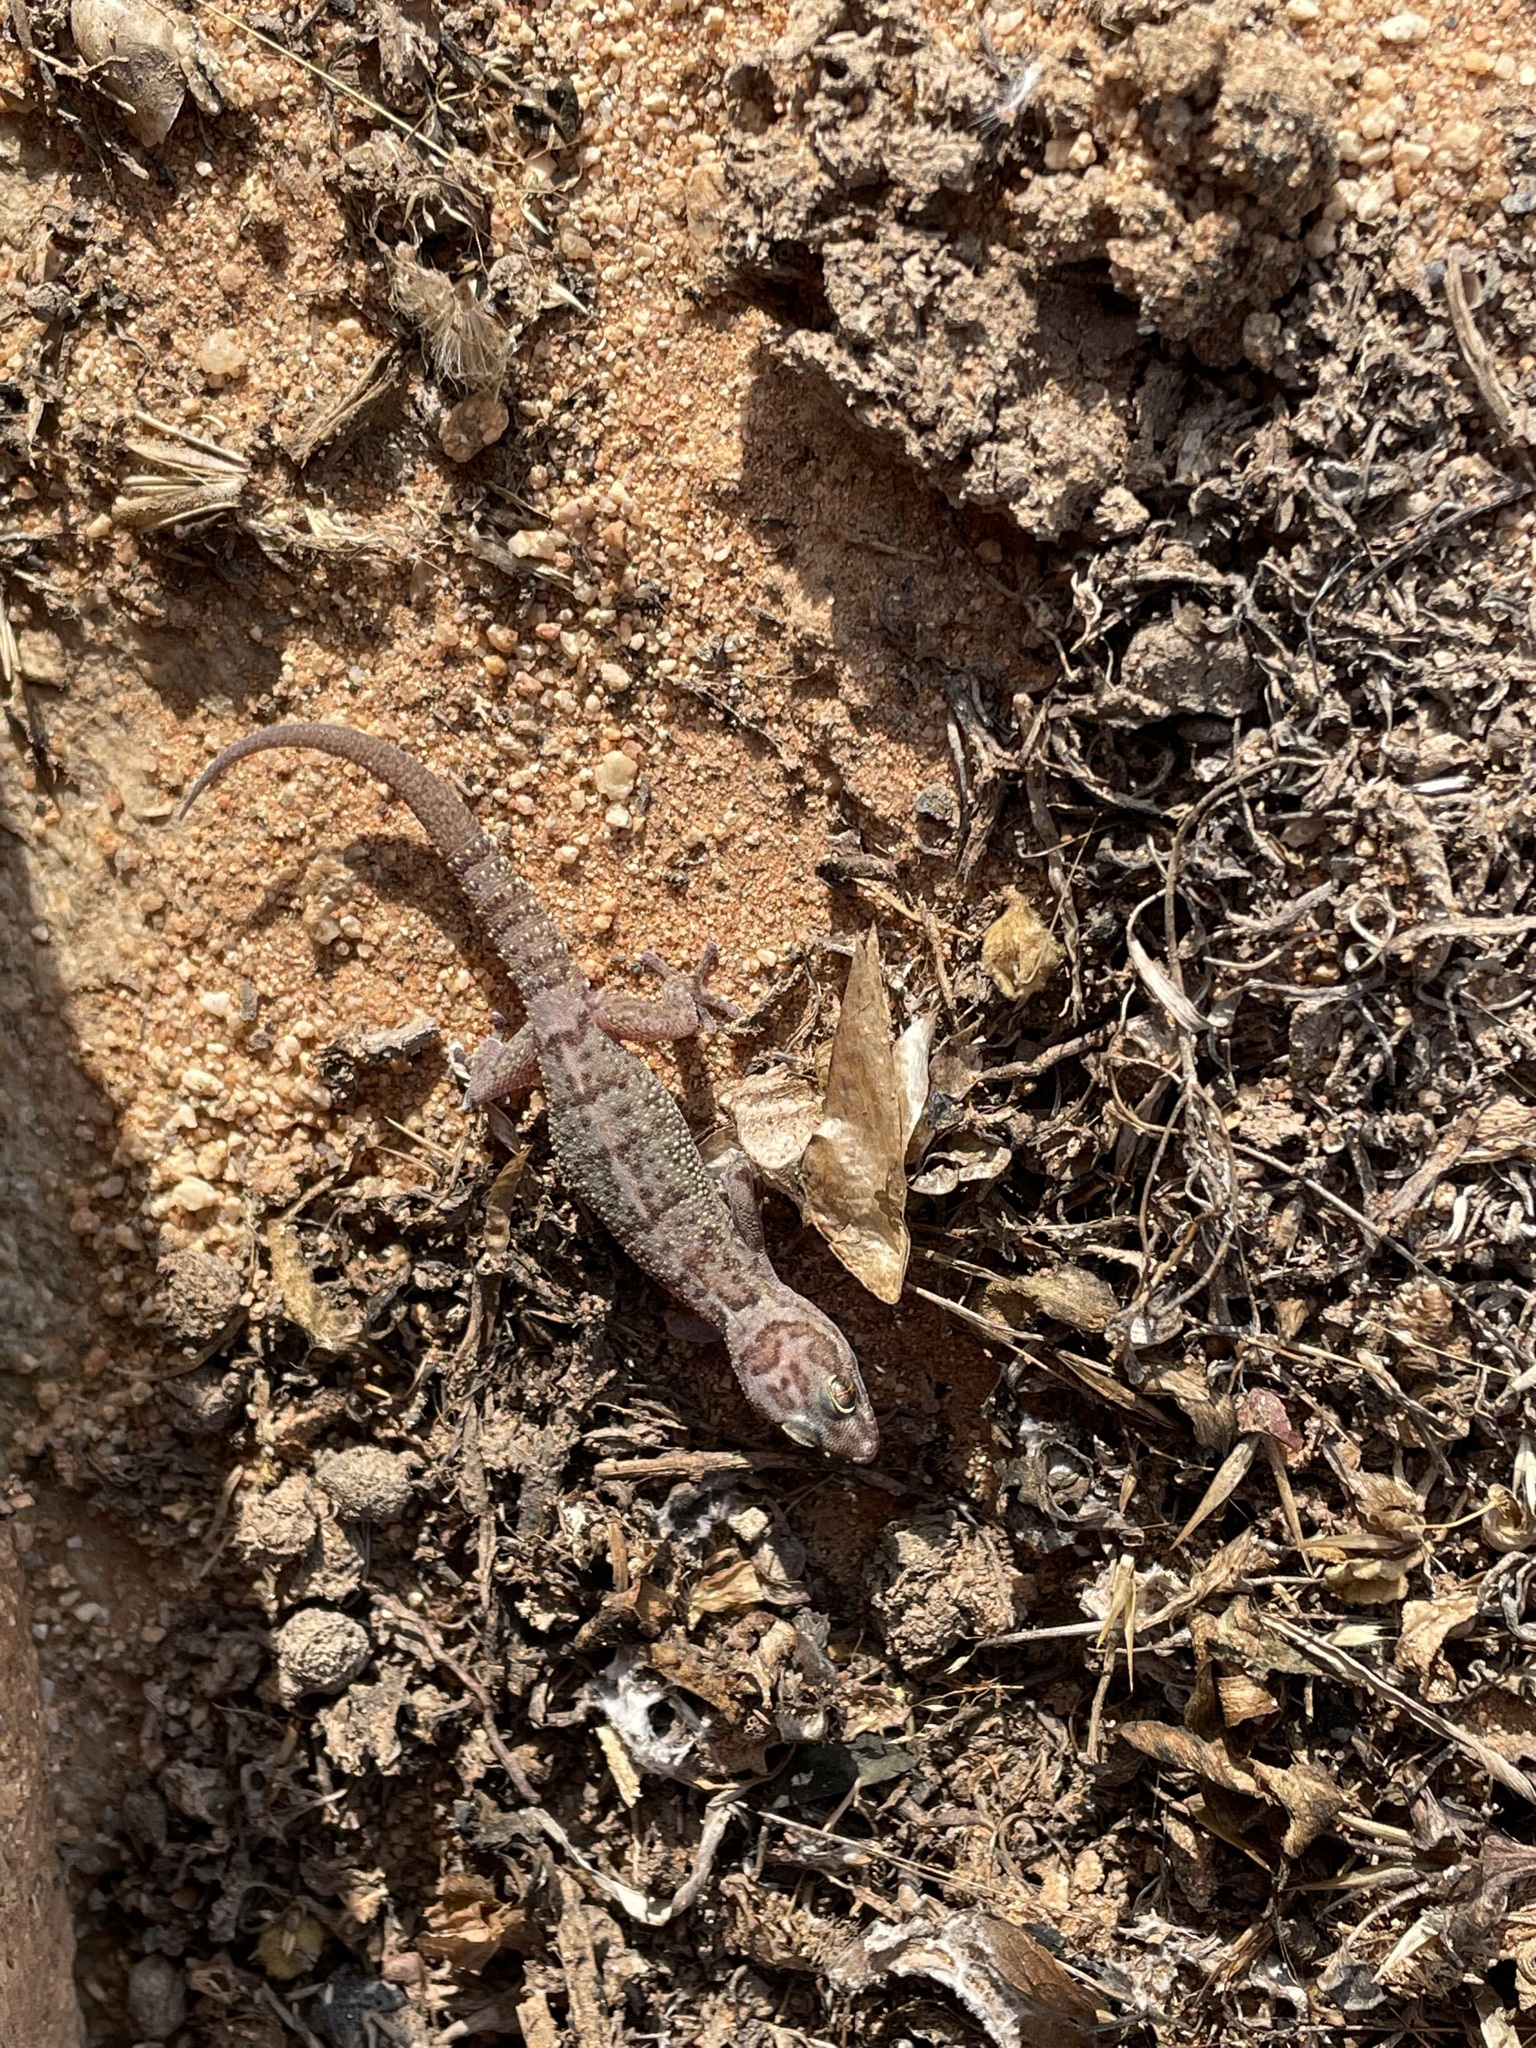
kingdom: Animalia
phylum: Chordata
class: Squamata
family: Gekkonidae
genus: Pachydactylus
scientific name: Pachydactylus weberi
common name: Weber's gecko
